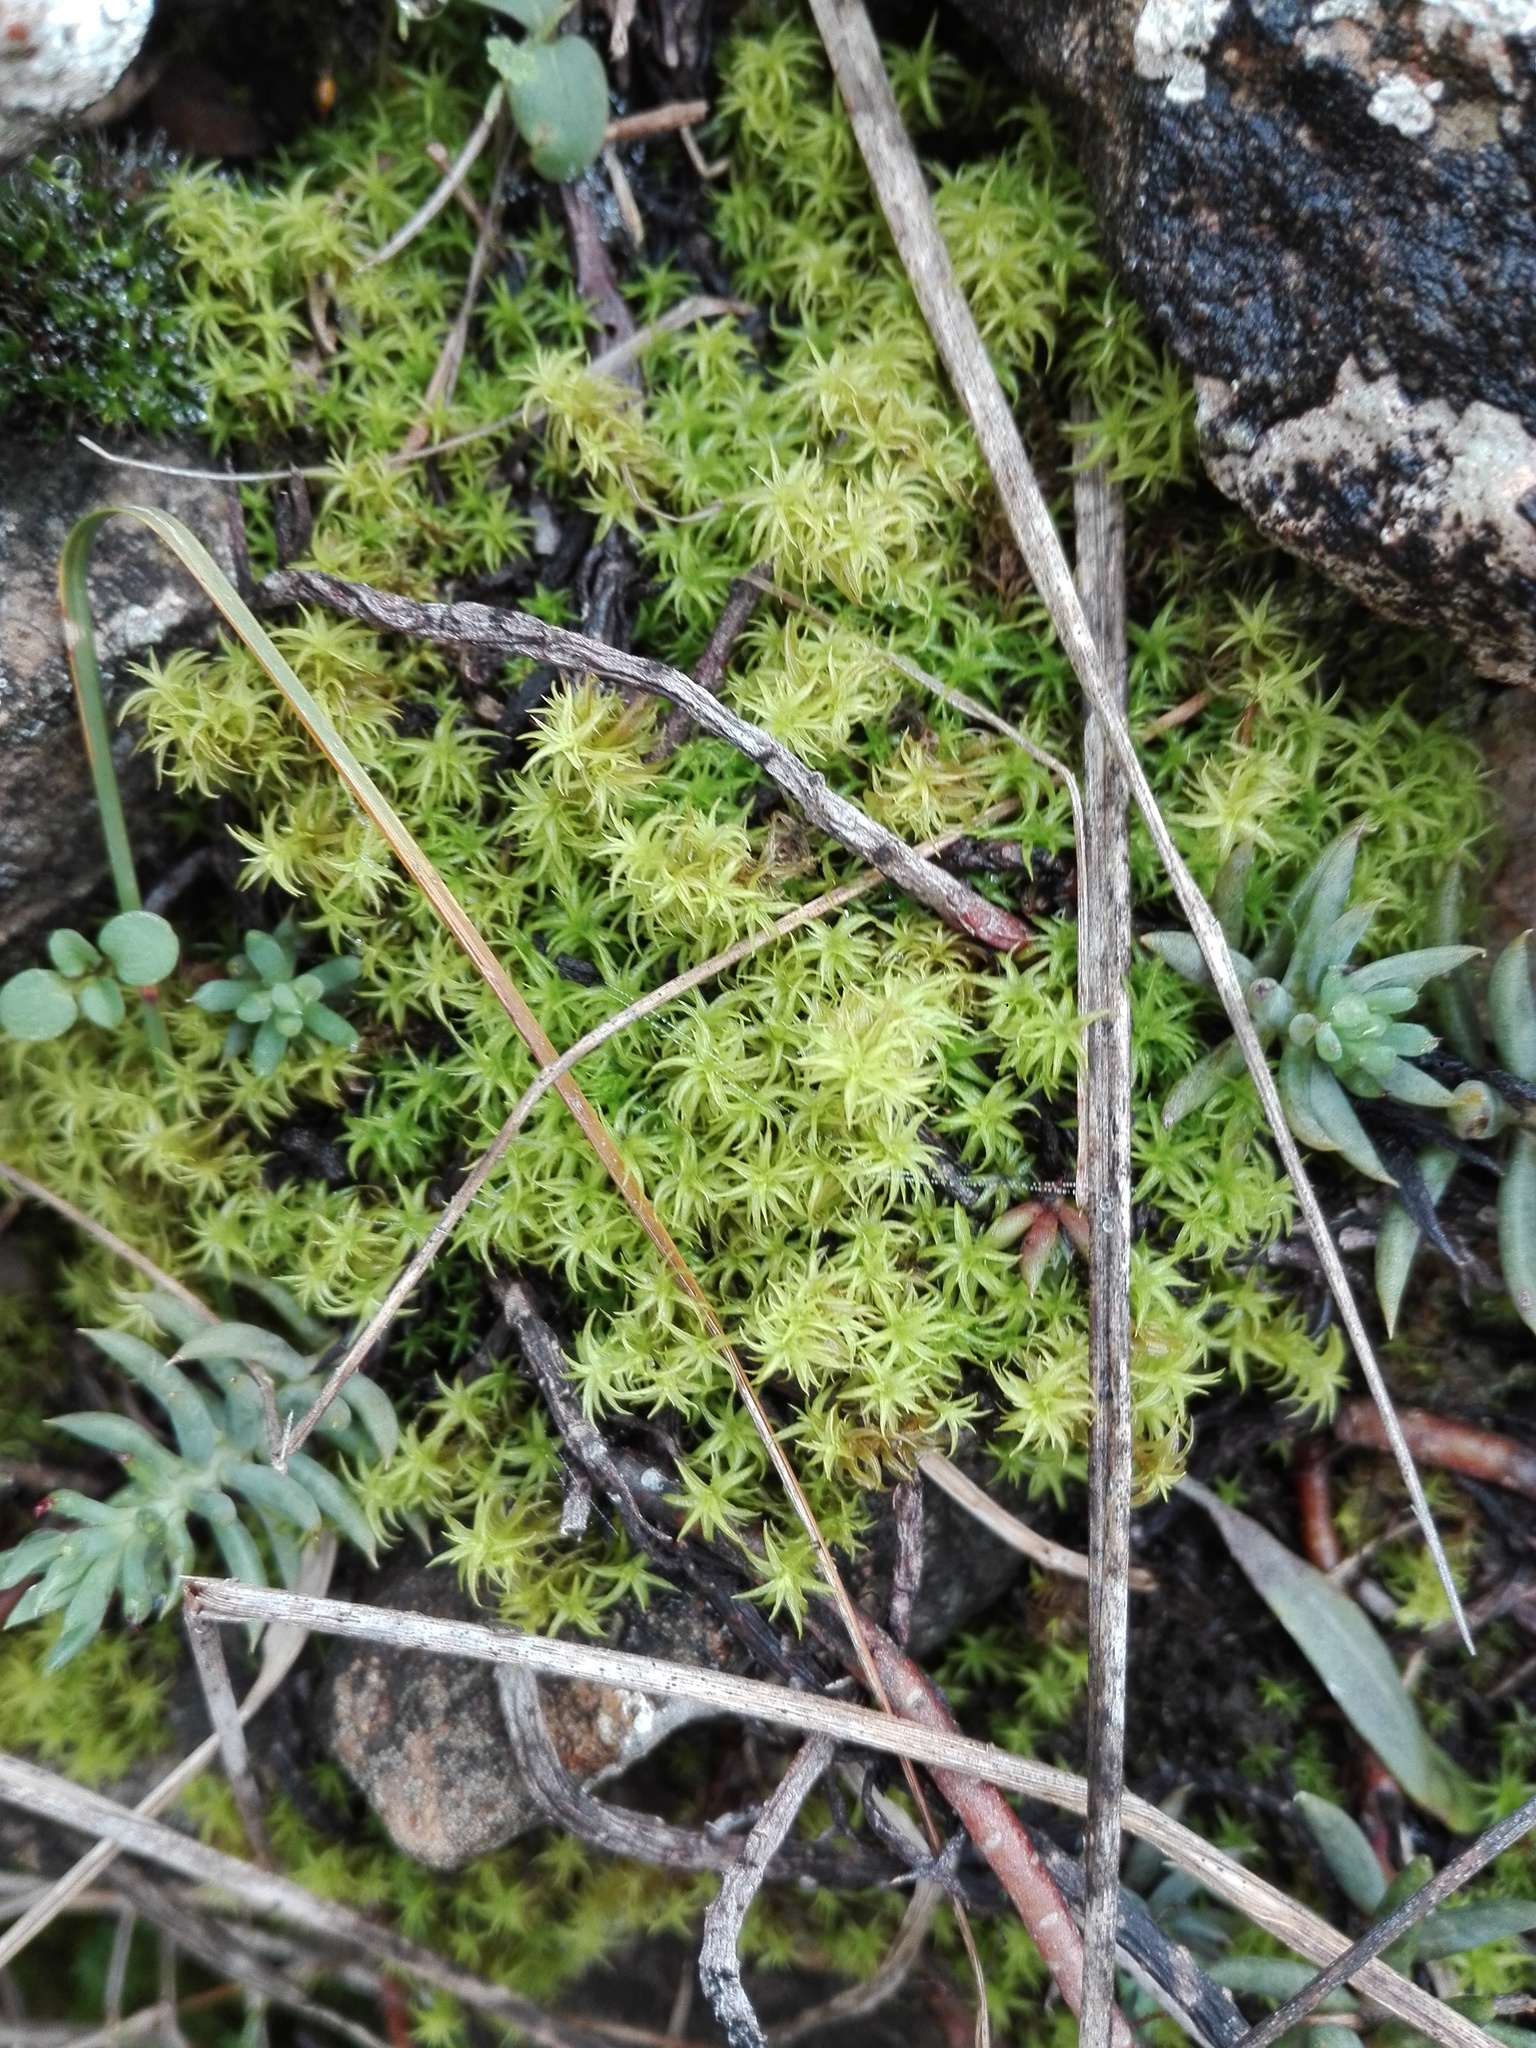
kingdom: Plantae
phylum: Bryophyta
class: Bryopsida
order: Pottiales
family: Pottiaceae
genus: Pleurochaete
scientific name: Pleurochaete squarrosa
